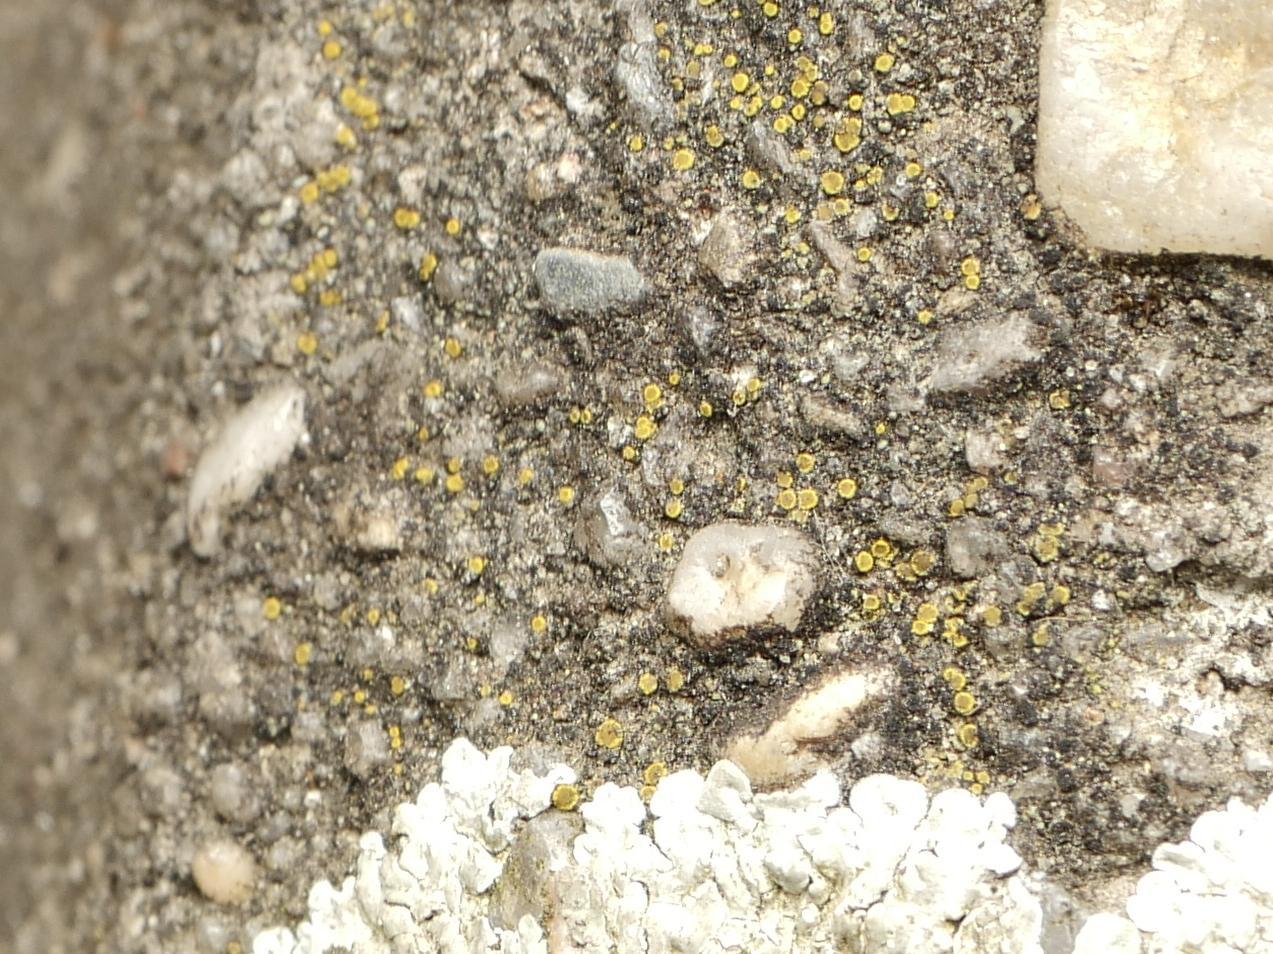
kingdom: Fungi
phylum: Ascomycota
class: Candelariomycetes
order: Candelariales
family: Candelariaceae
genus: Candelariella
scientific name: Candelariella aurella
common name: Hidden goldspeck lichen
